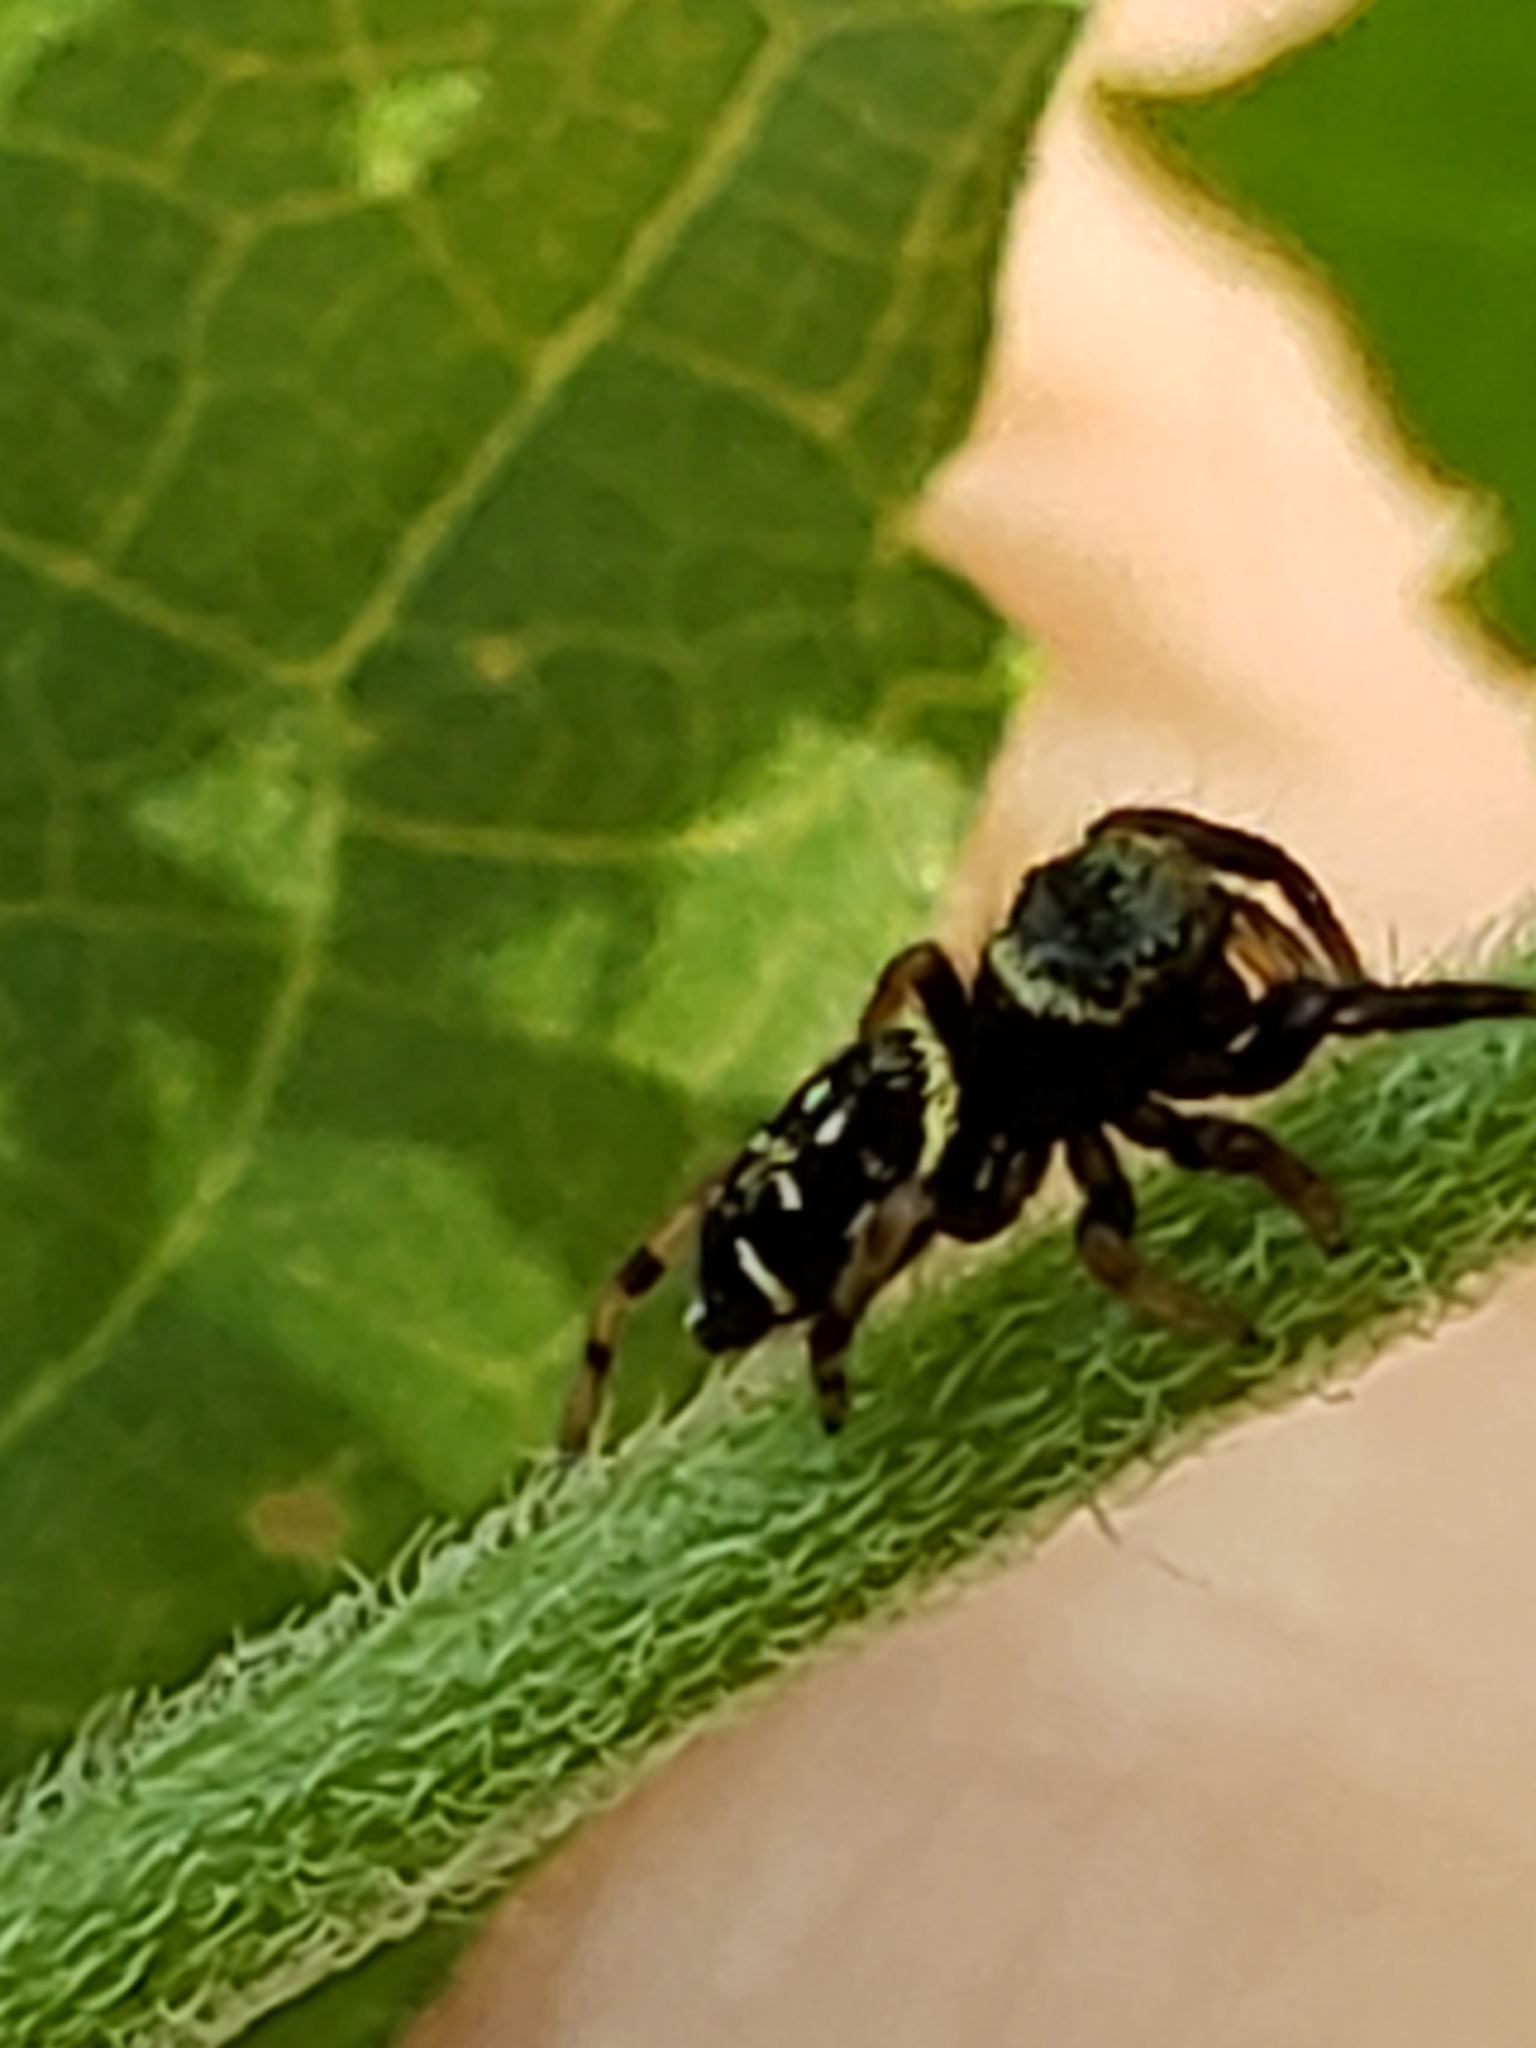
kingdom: Animalia
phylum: Arthropoda
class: Arachnida
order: Araneae
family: Salticidae
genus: Paraphidippus
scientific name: Paraphidippus aurantius
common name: Jumping spiders
